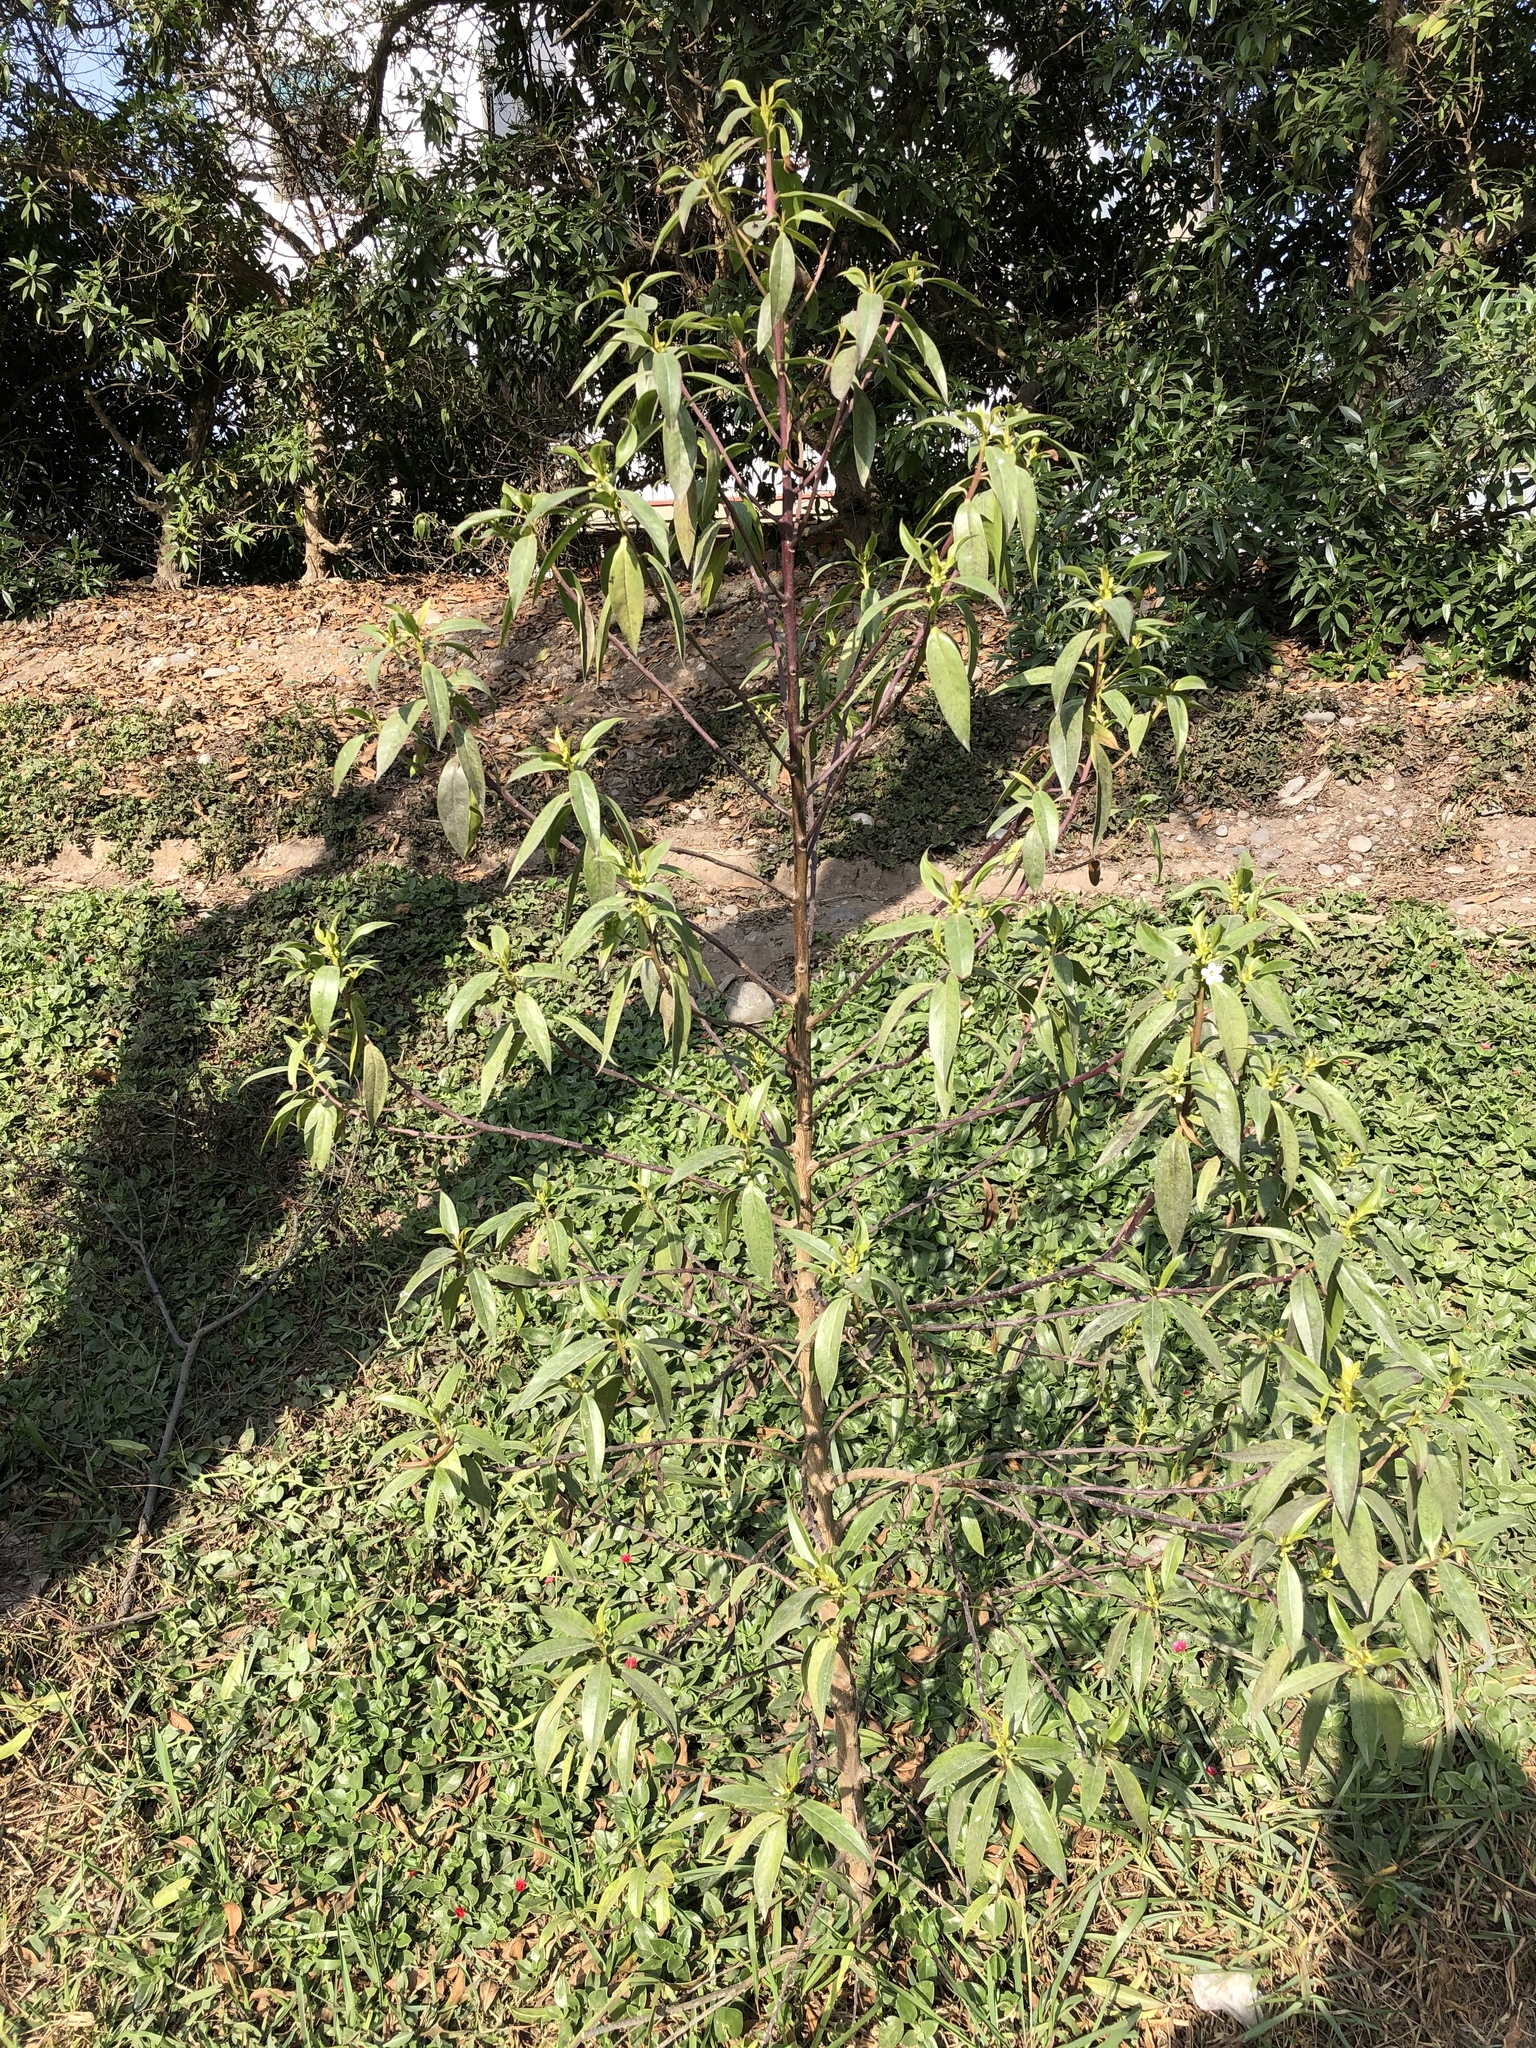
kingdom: Plantae
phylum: Tracheophyta
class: Magnoliopsida
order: Lamiales
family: Scrophulariaceae
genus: Myoporum
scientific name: Myoporum laetum
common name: Ngaio tree
